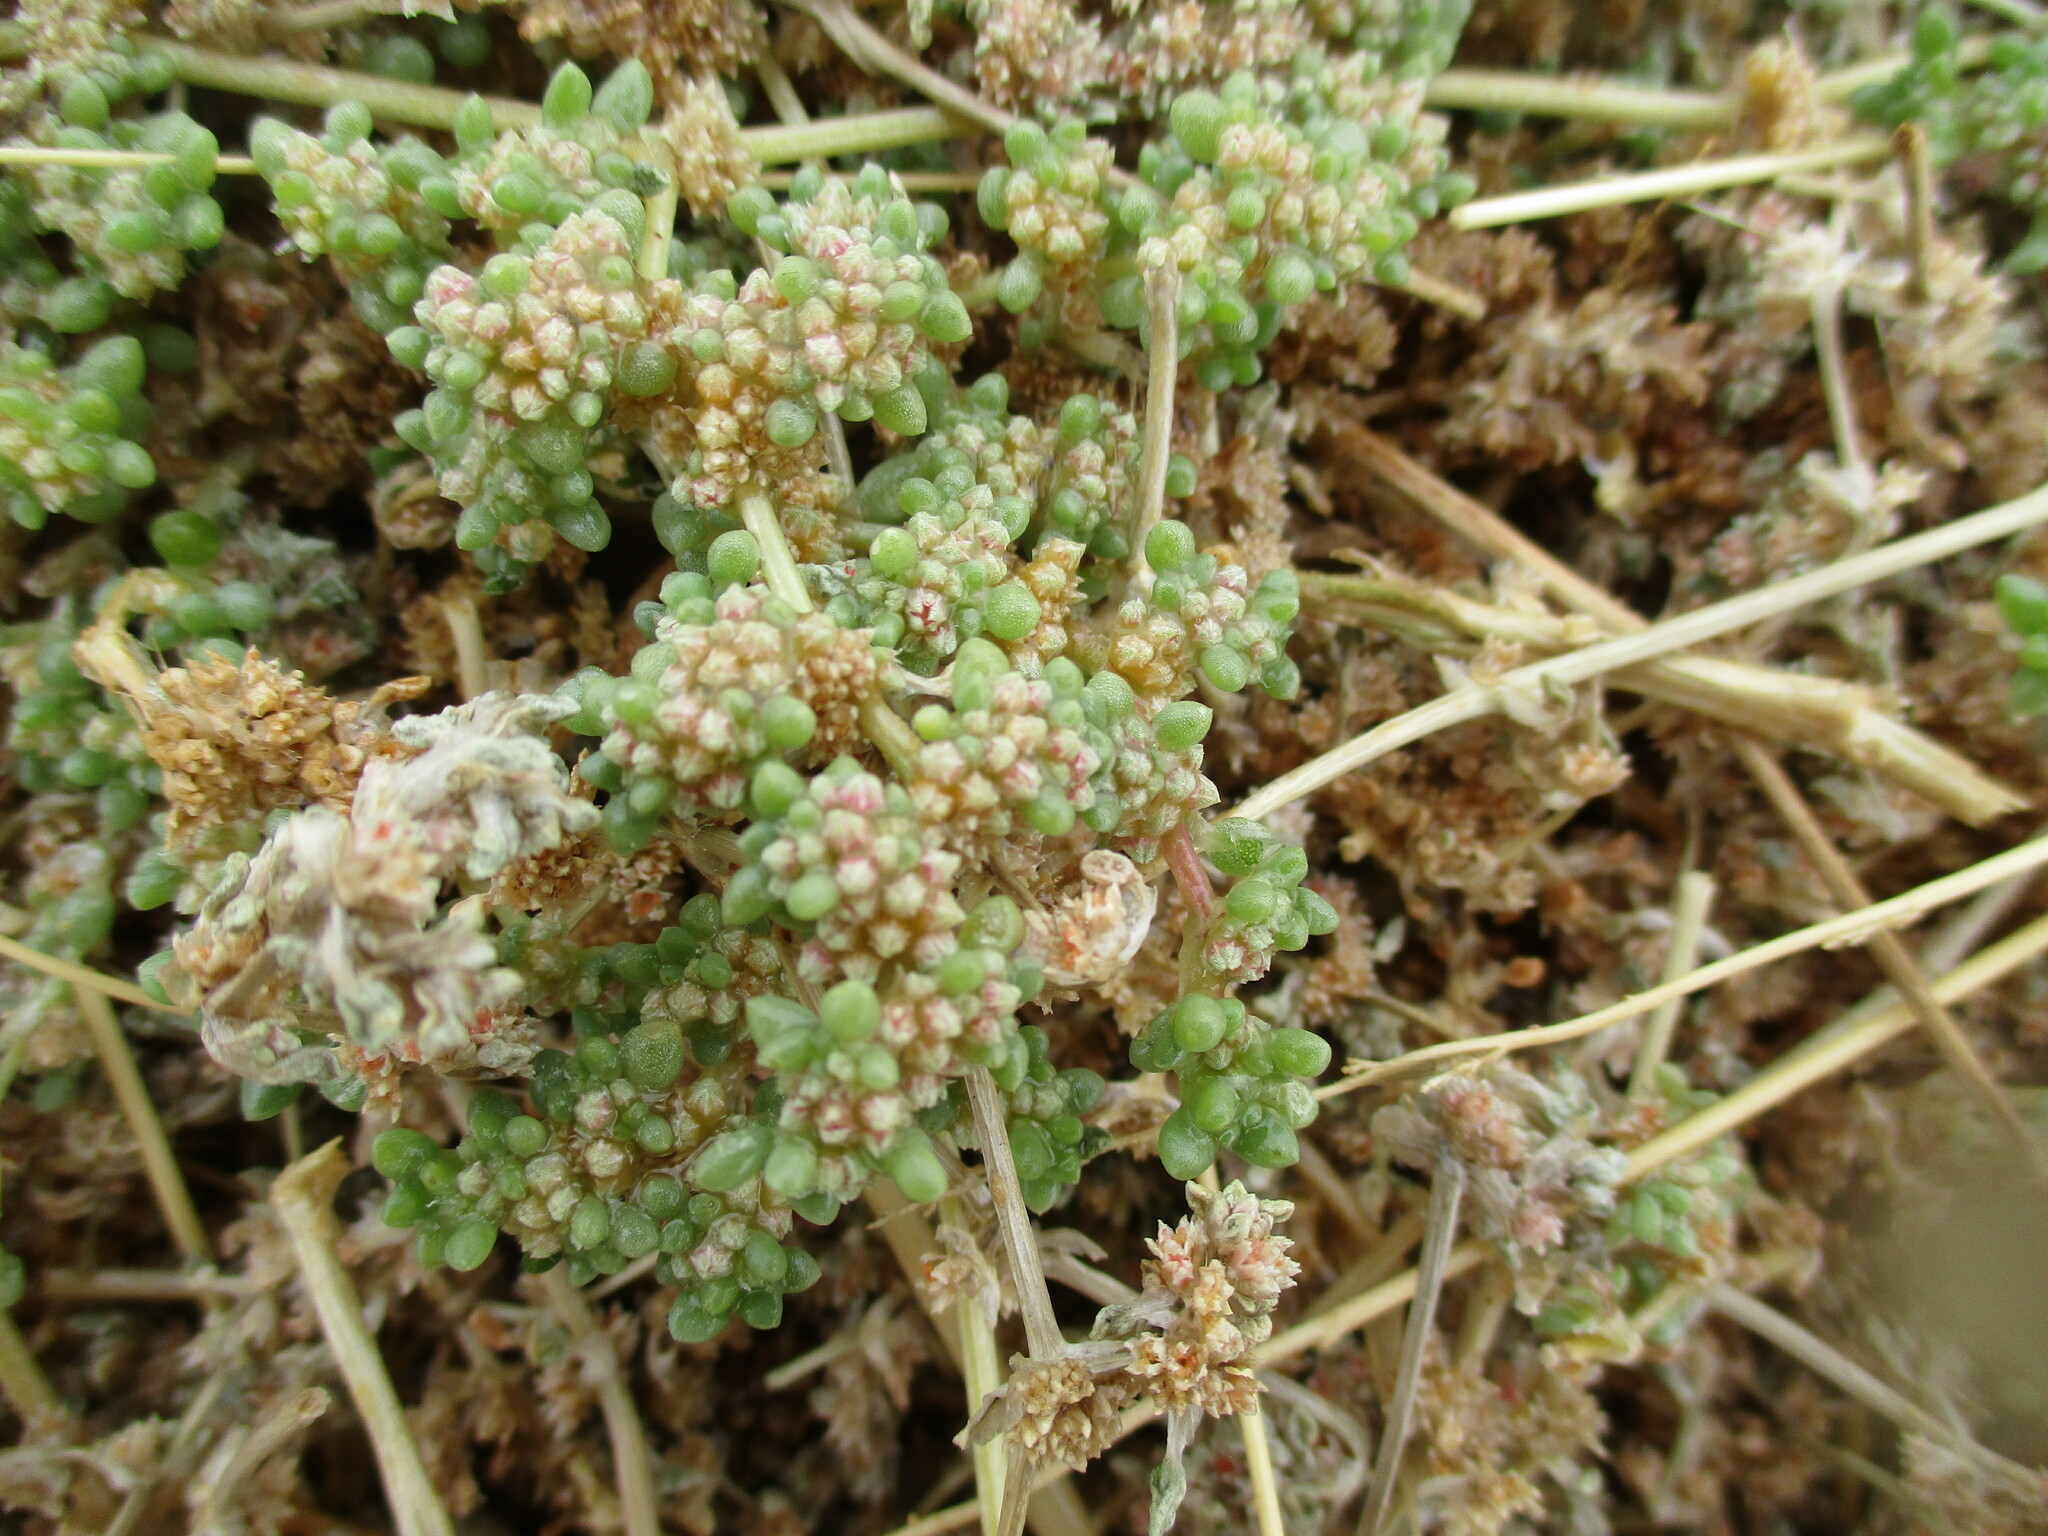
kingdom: Plantae
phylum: Tracheophyta
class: Magnoliopsida
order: Caryophyllales
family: Aizoaceae
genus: Trianthema
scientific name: Trianthema parvifolium
